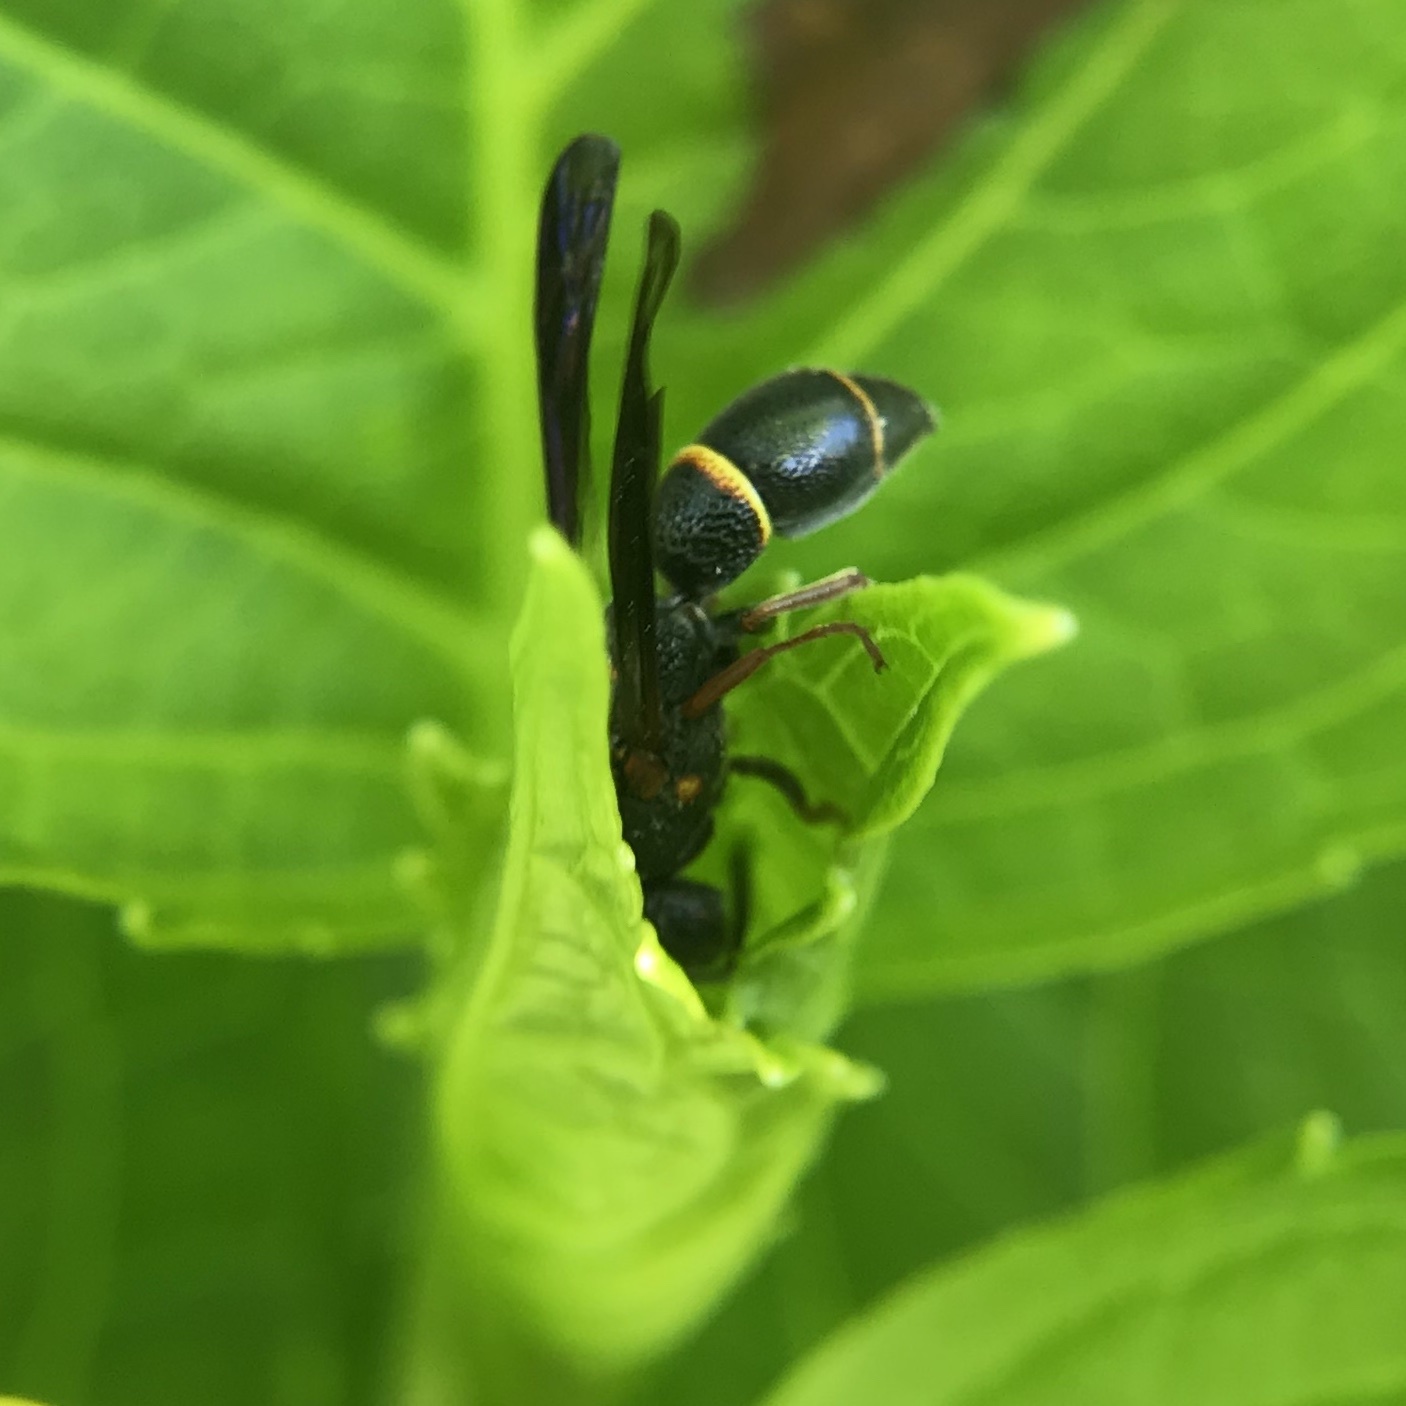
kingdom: Animalia
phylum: Arthropoda
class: Insecta
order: Hymenoptera
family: Eumenidae
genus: Parancistrocerus
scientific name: Parancistrocerus histrio
